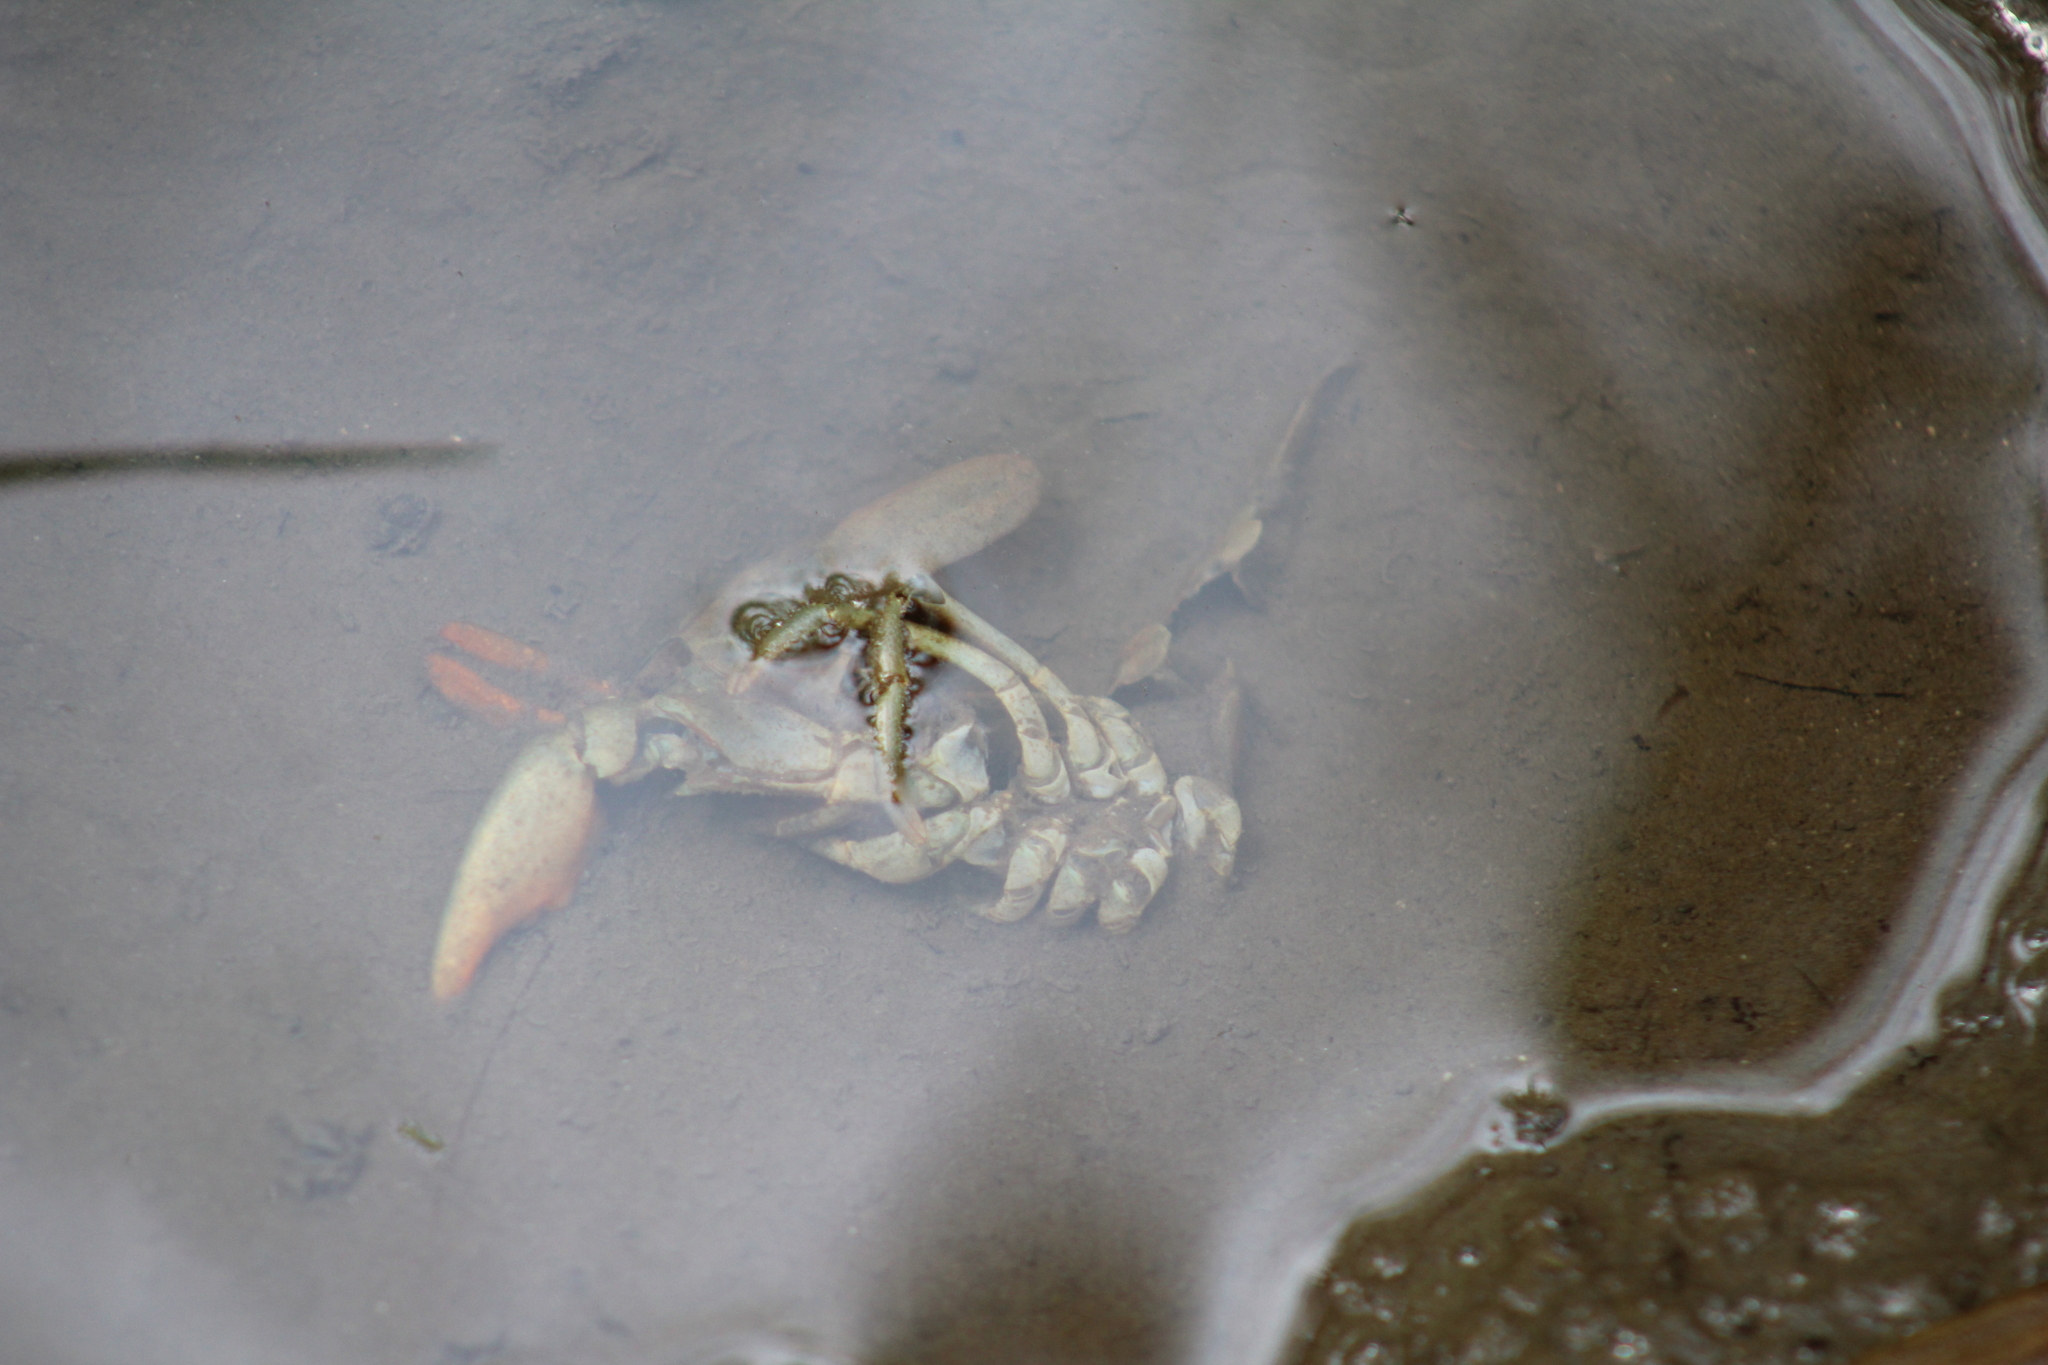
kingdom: Animalia
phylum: Arthropoda
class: Malacostraca
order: Decapoda
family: Astacidae
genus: Pacifastacus
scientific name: Pacifastacus leniusculus
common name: Signal crayfish
